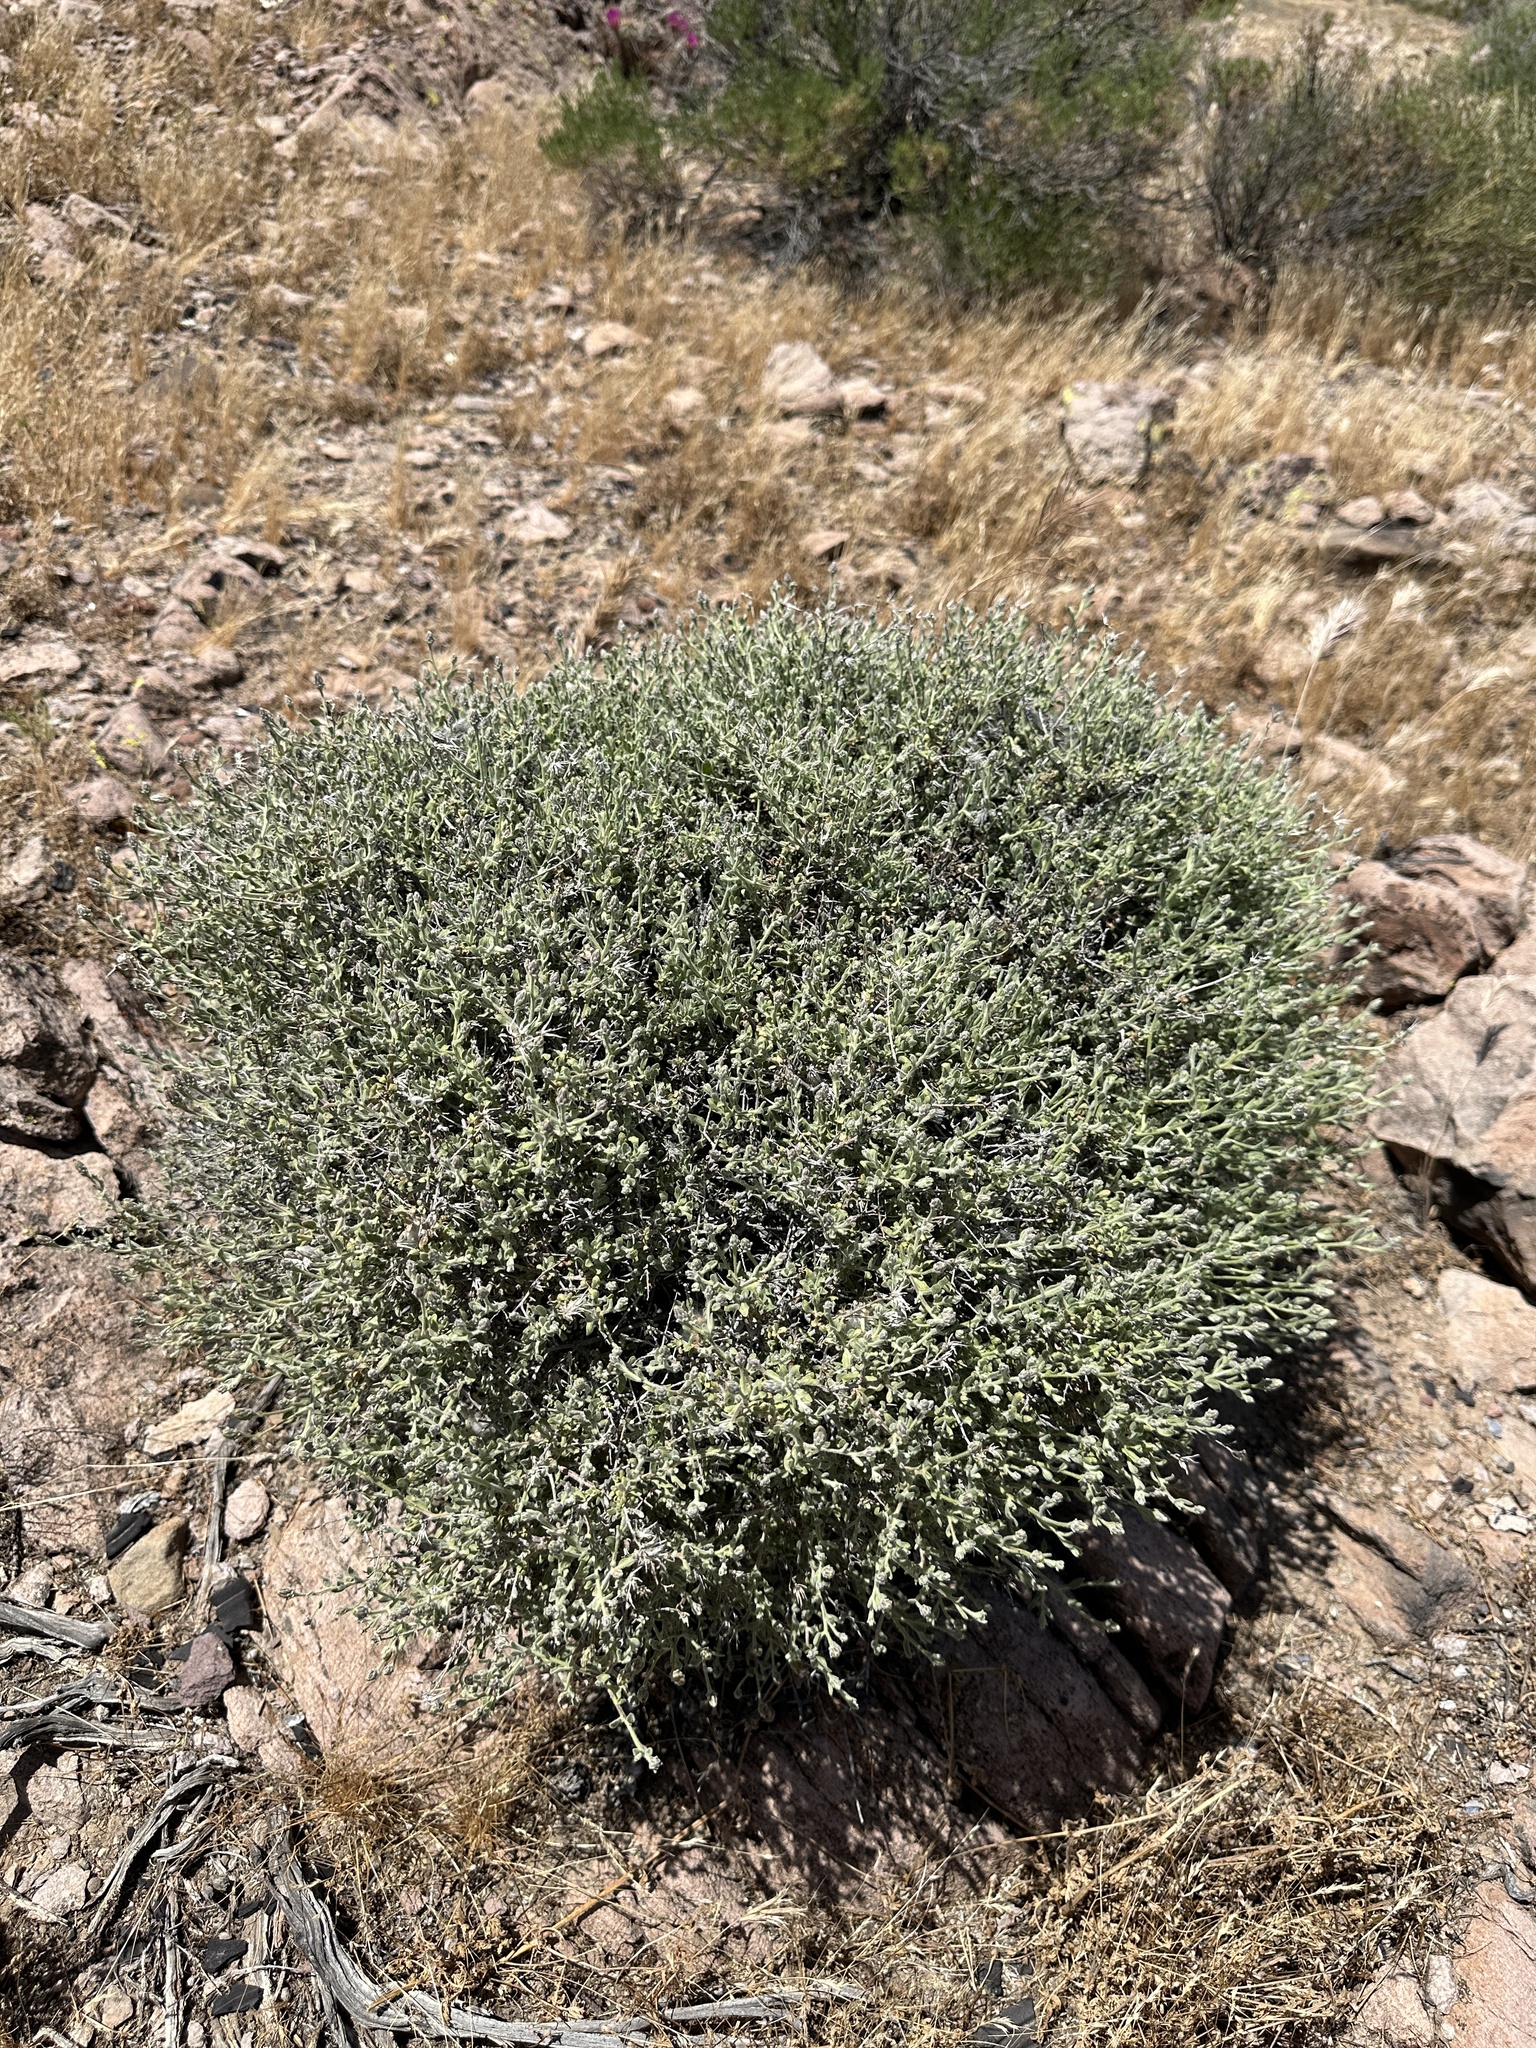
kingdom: Plantae
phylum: Tracheophyta
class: Magnoliopsida
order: Asterales
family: Asteraceae
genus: Brickellia
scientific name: Brickellia frutescens
